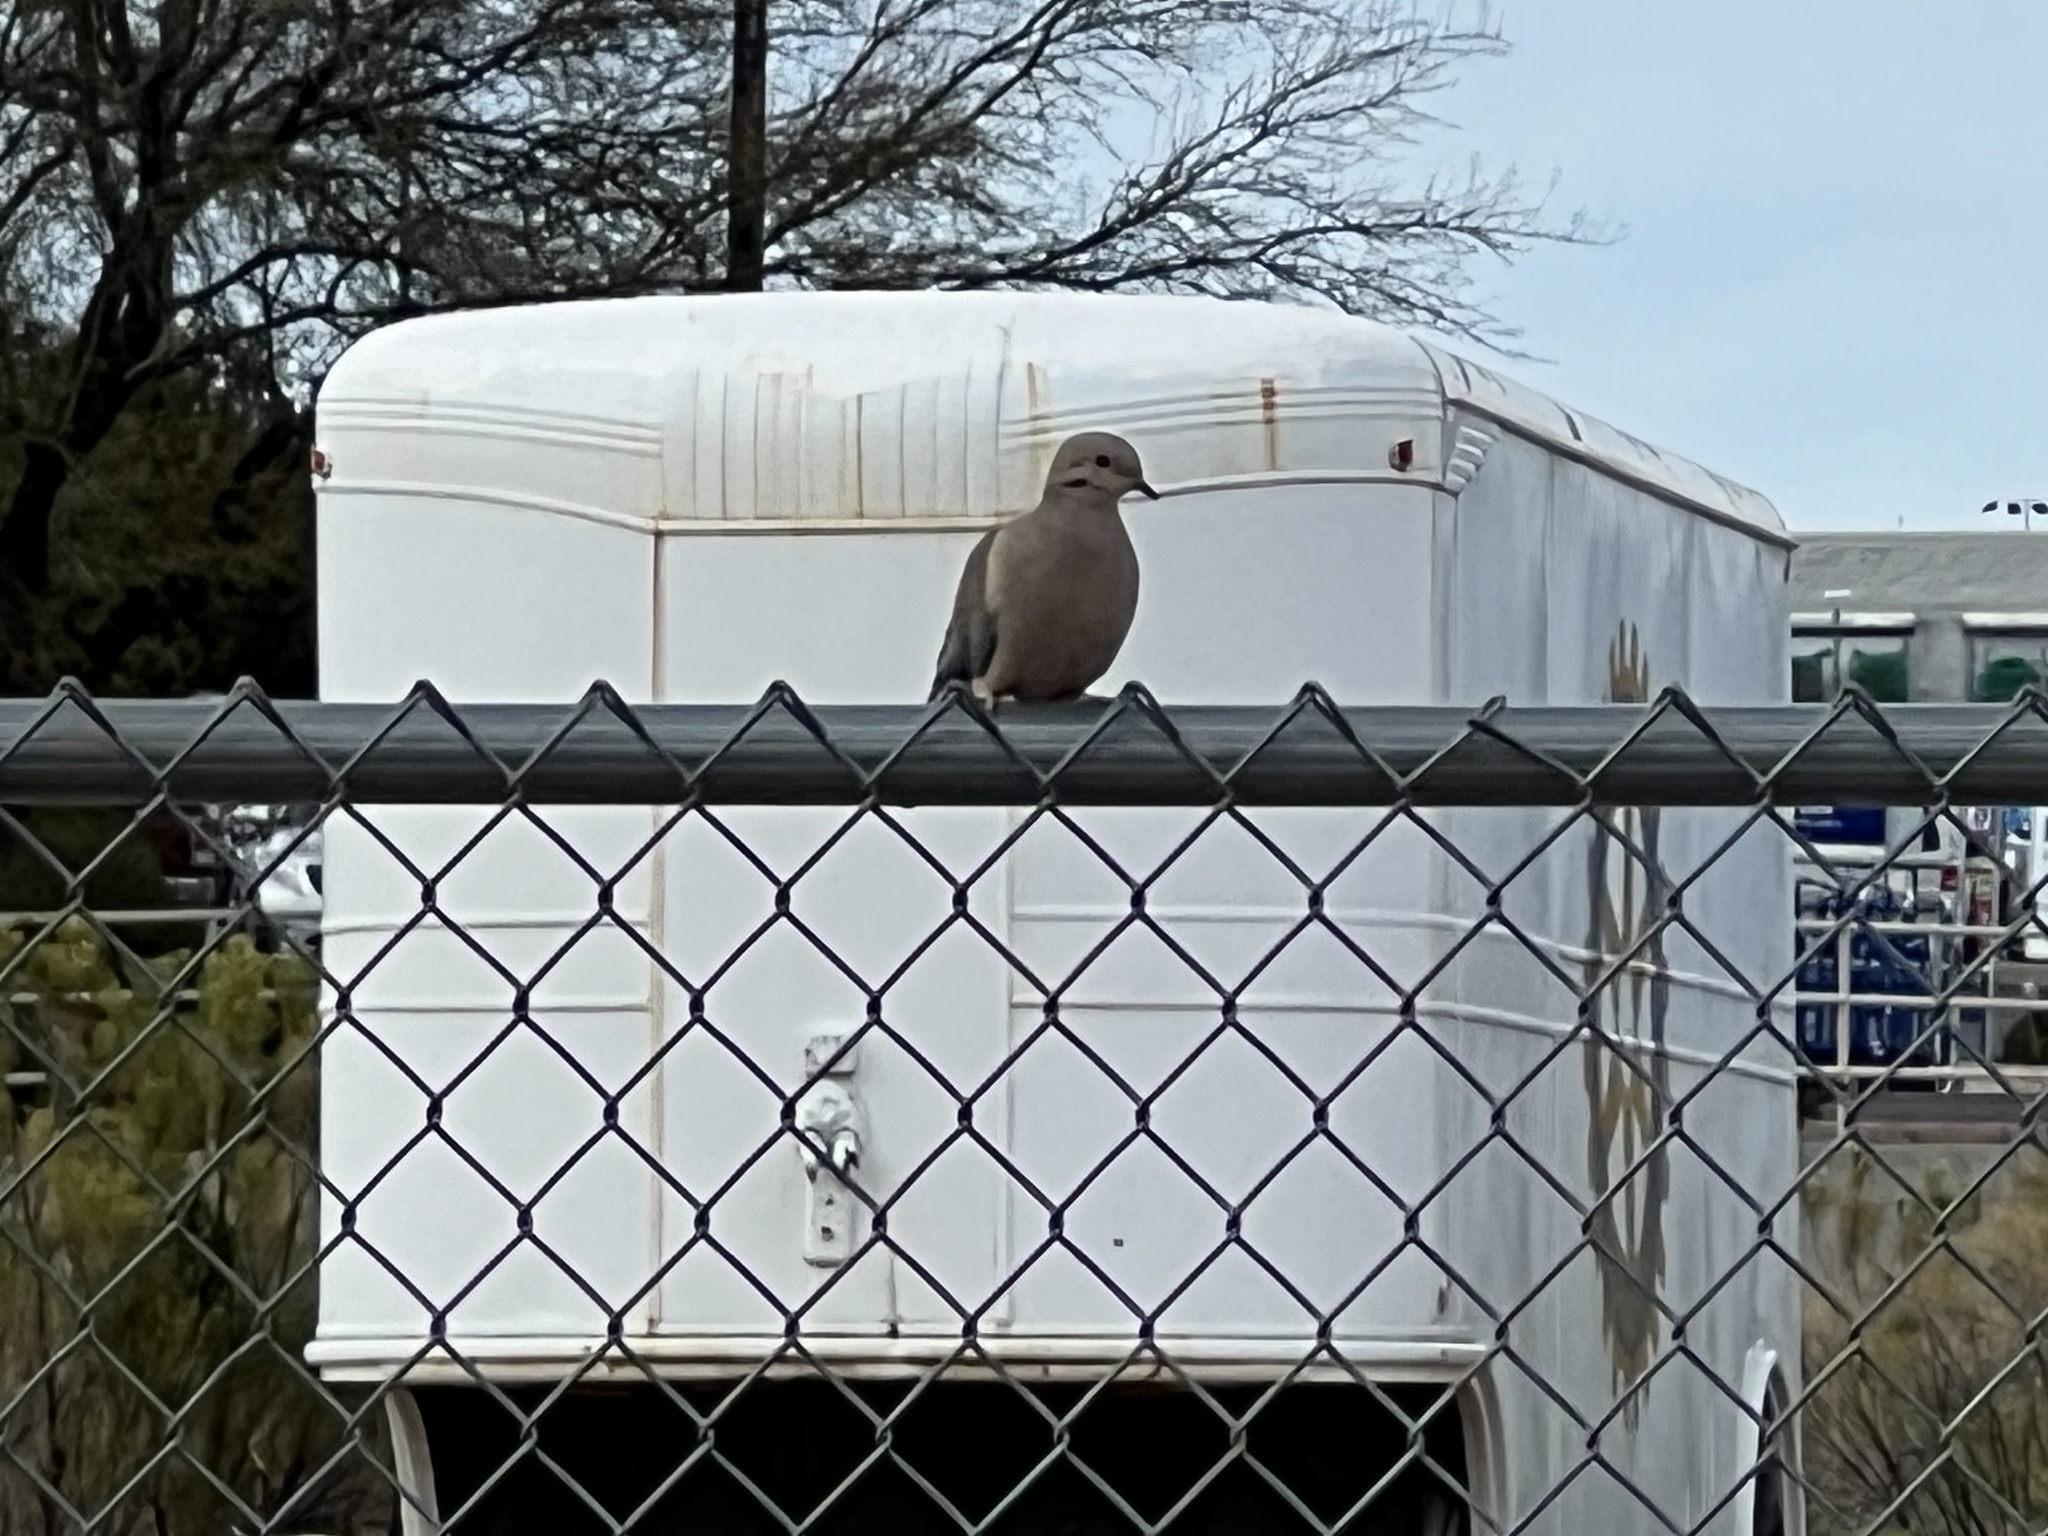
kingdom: Animalia
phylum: Chordata
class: Aves
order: Columbiformes
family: Columbidae
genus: Zenaida
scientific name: Zenaida macroura
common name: Mourning dove
